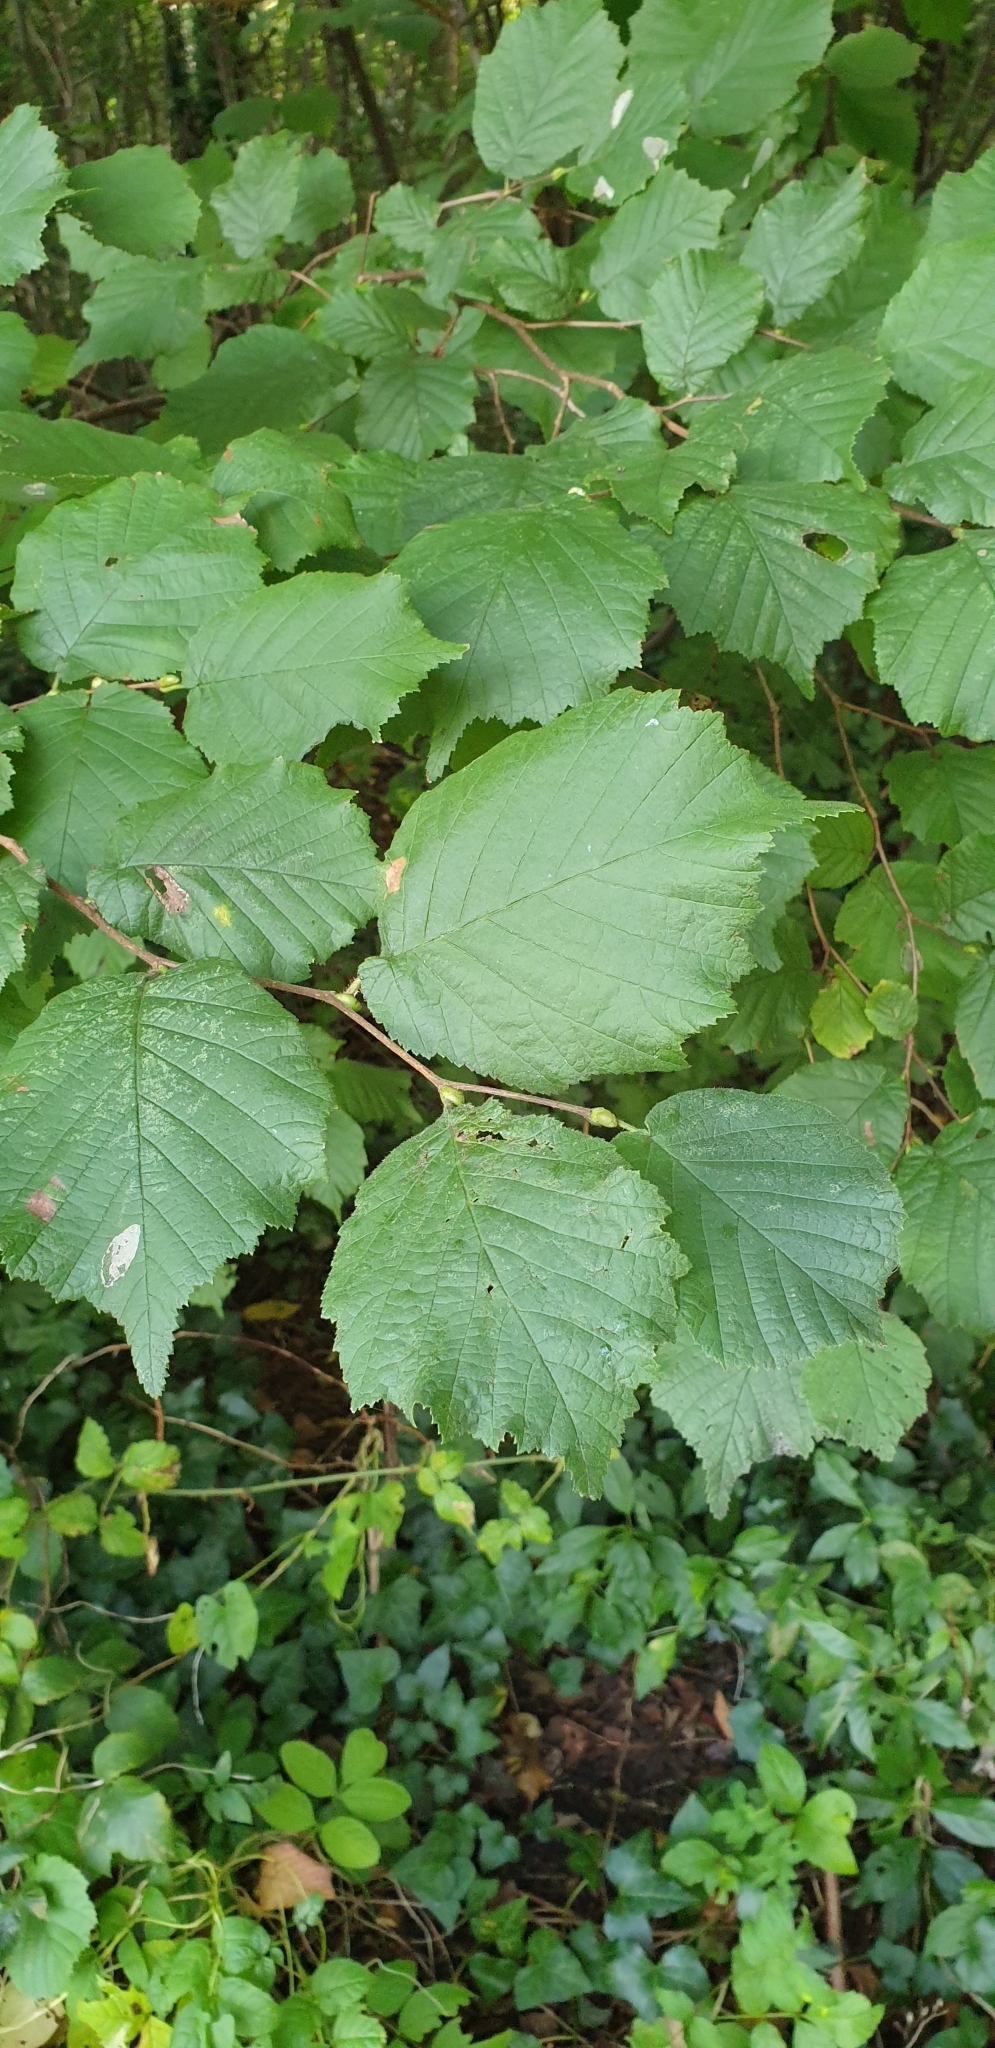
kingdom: Plantae
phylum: Tracheophyta
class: Magnoliopsida
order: Fagales
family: Betulaceae
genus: Corylus
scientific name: Corylus avellana
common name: European hazel
